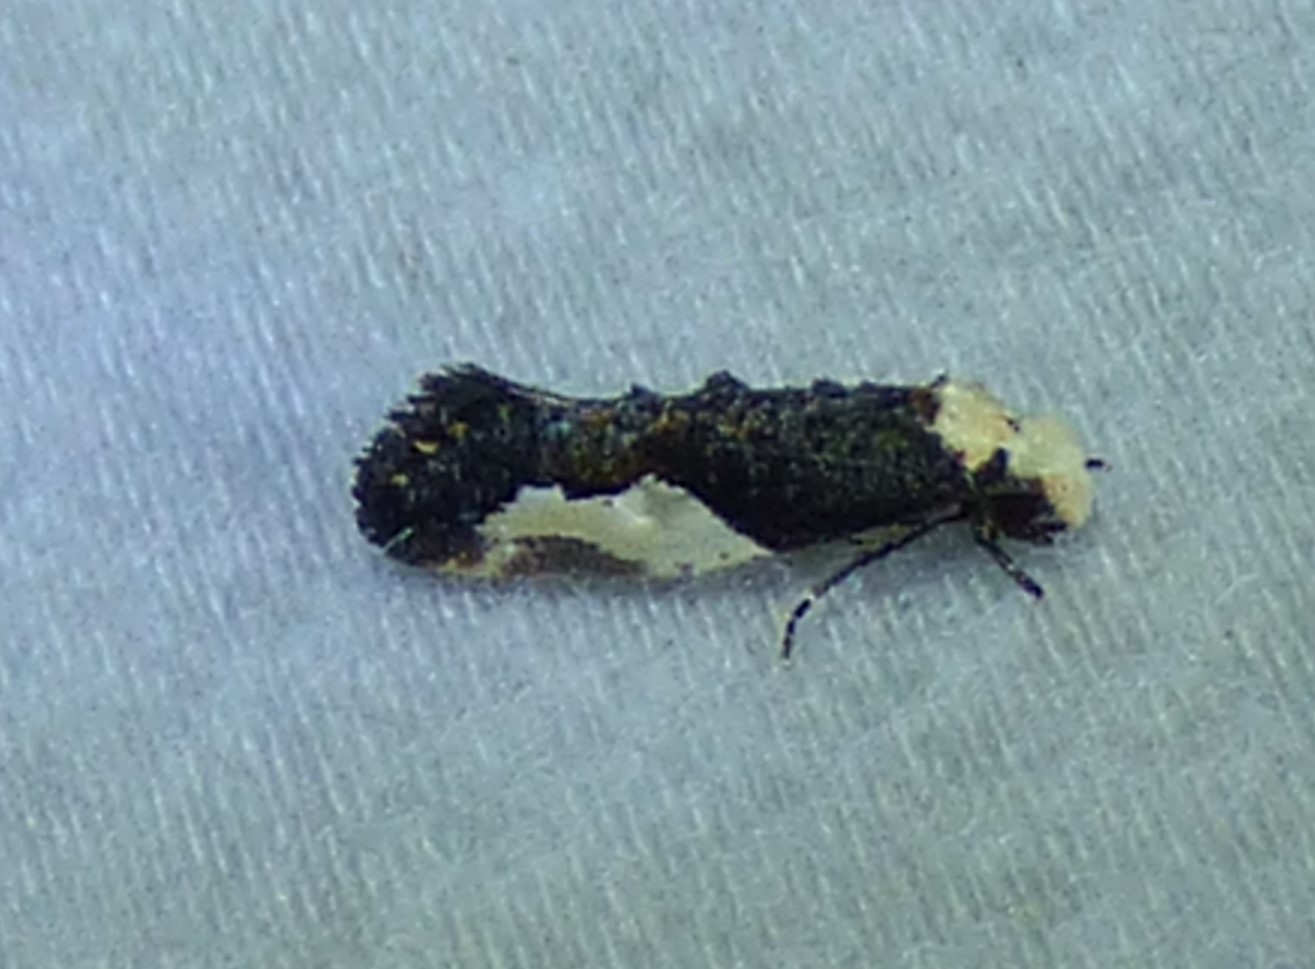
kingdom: Animalia
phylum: Arthropoda
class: Insecta
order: Lepidoptera
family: Tineidae
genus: Monopis
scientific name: Monopis longella
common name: Pavlovski's monopis moth
